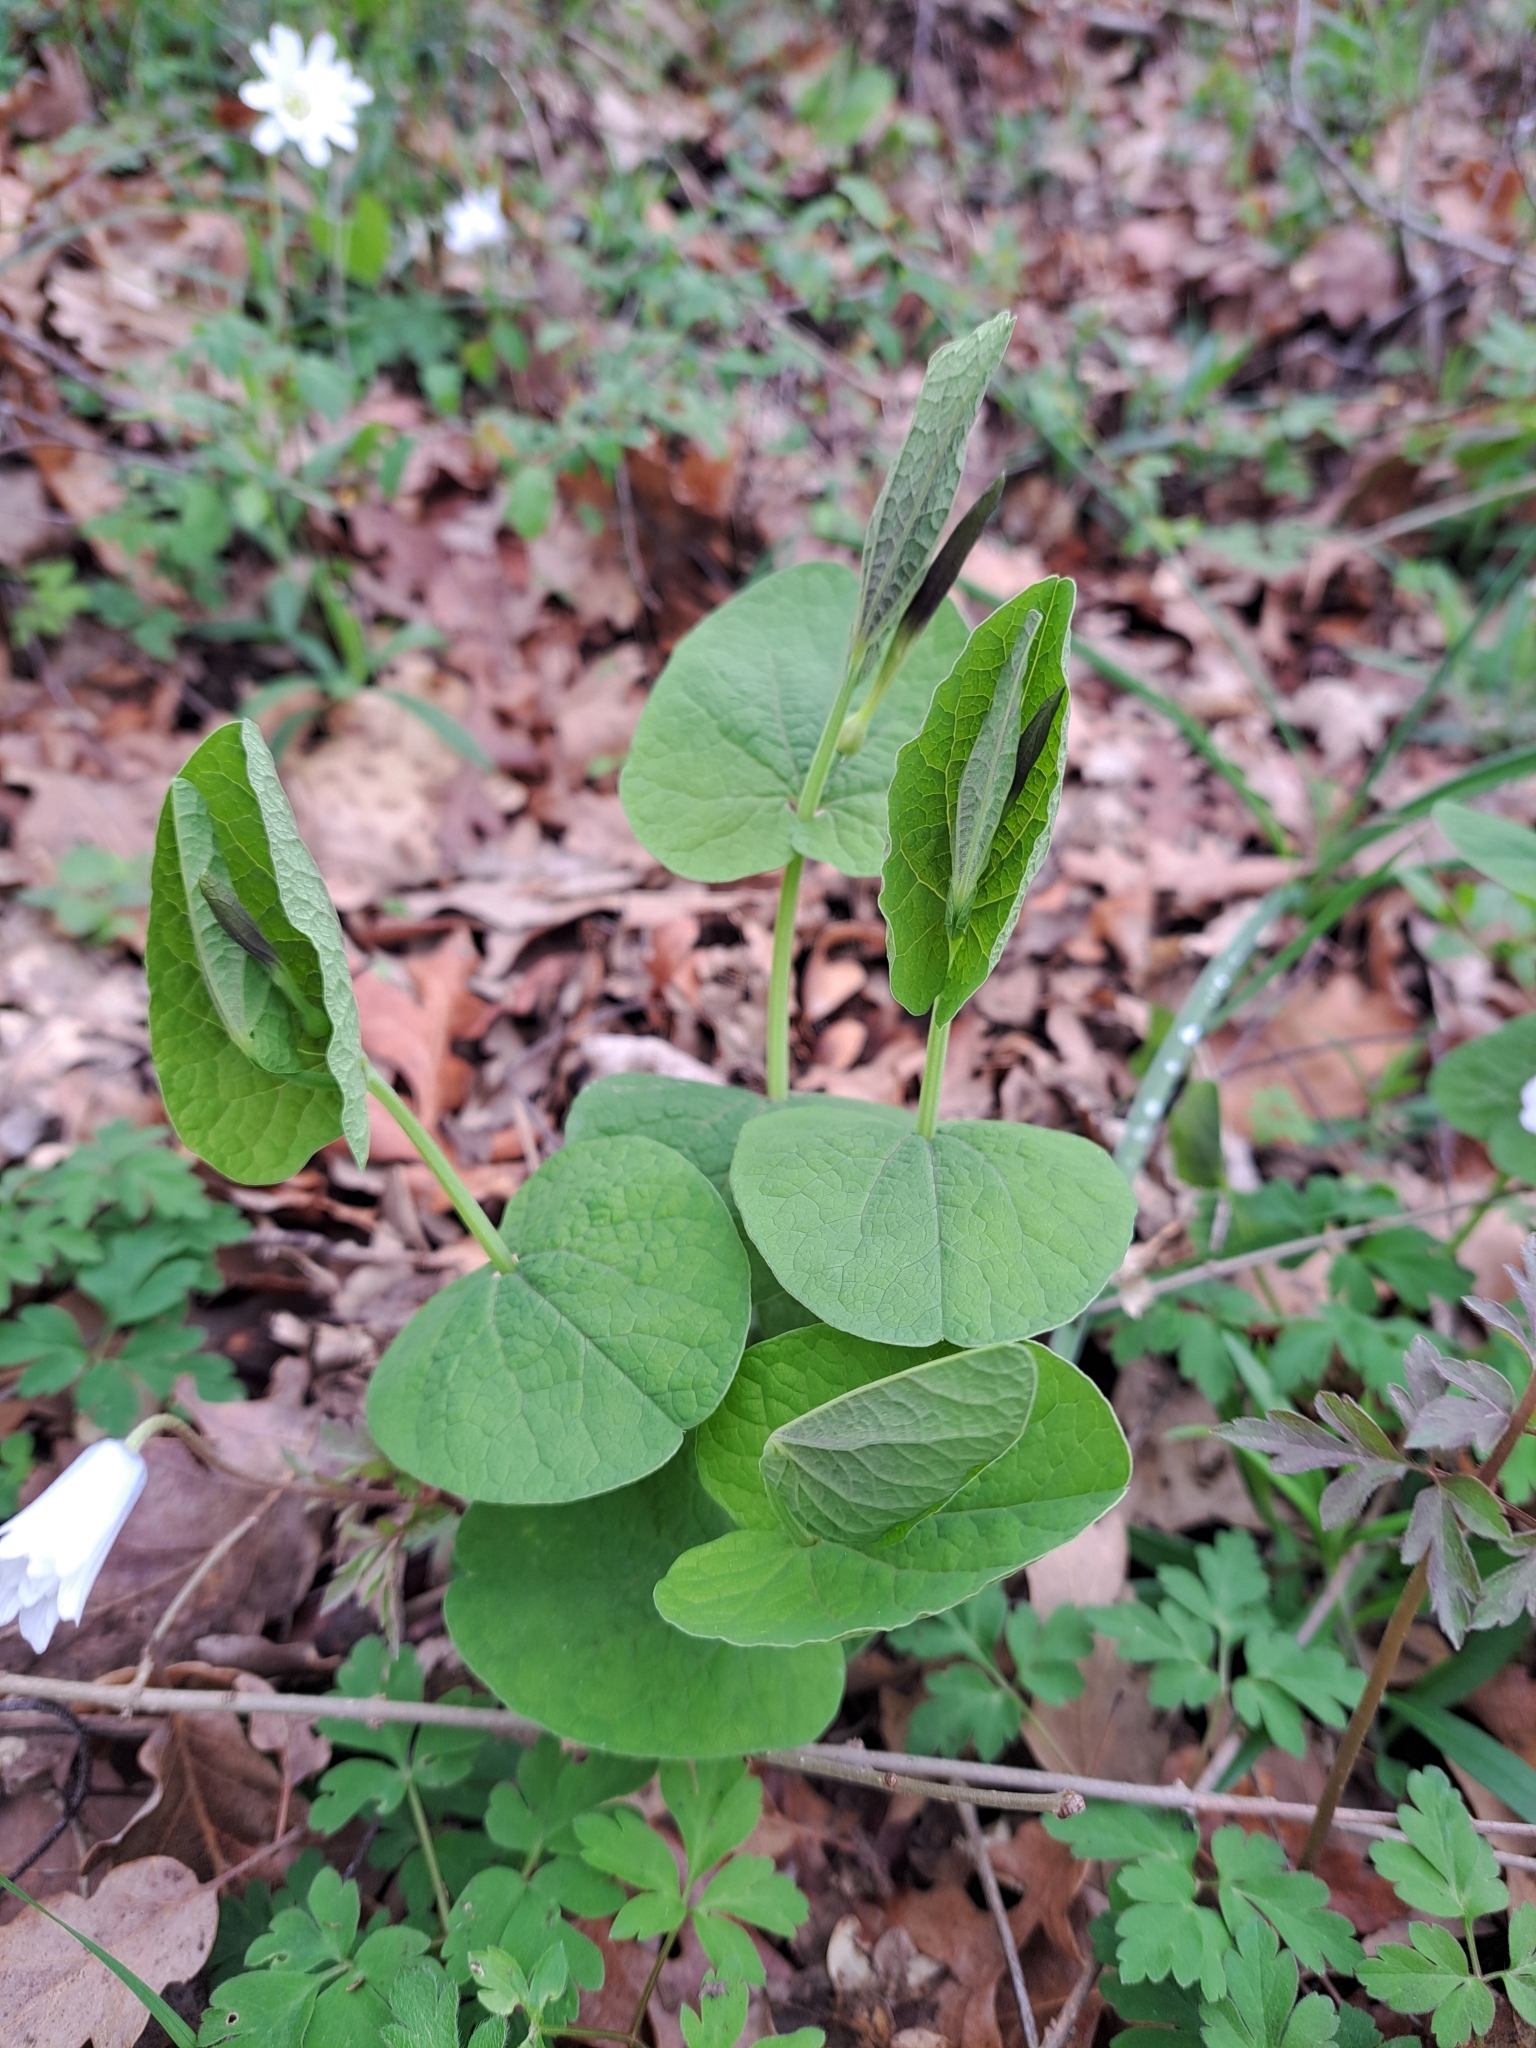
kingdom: Plantae
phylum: Tracheophyta
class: Magnoliopsida
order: Piperales
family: Aristolochiaceae
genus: Aristolochia
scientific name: Aristolochia rotunda
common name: Smearwort
